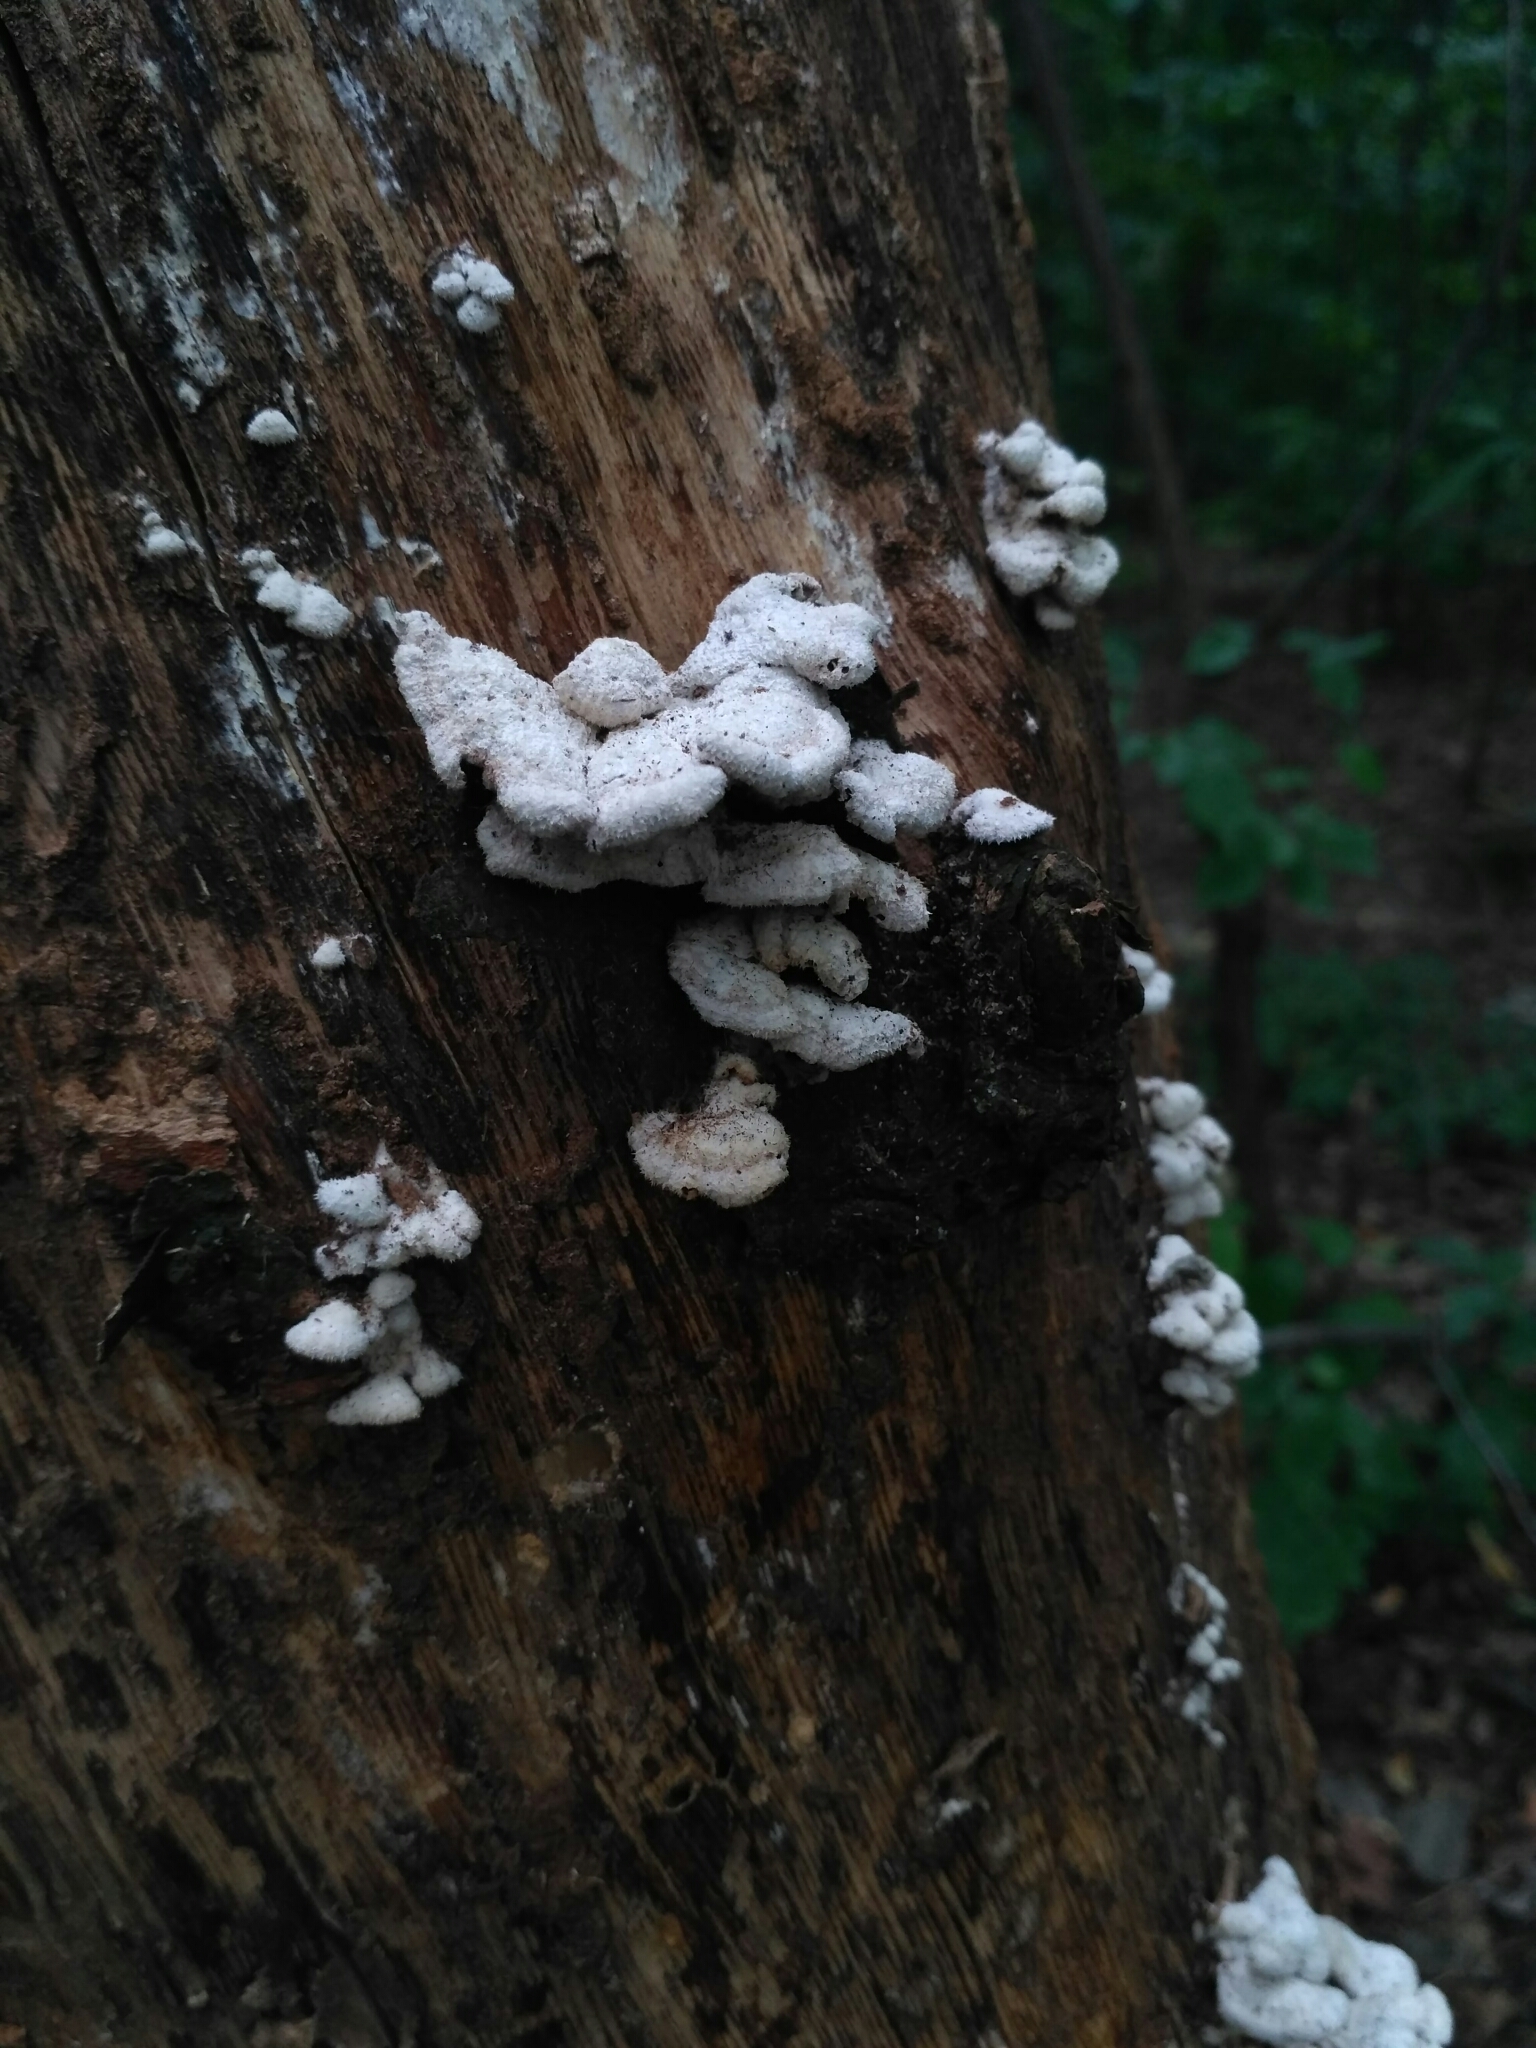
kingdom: Fungi
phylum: Basidiomycota
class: Agaricomycetes
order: Agaricales
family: Schizophyllaceae
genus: Schizophyllum
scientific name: Schizophyllum commune
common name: Common porecrust
